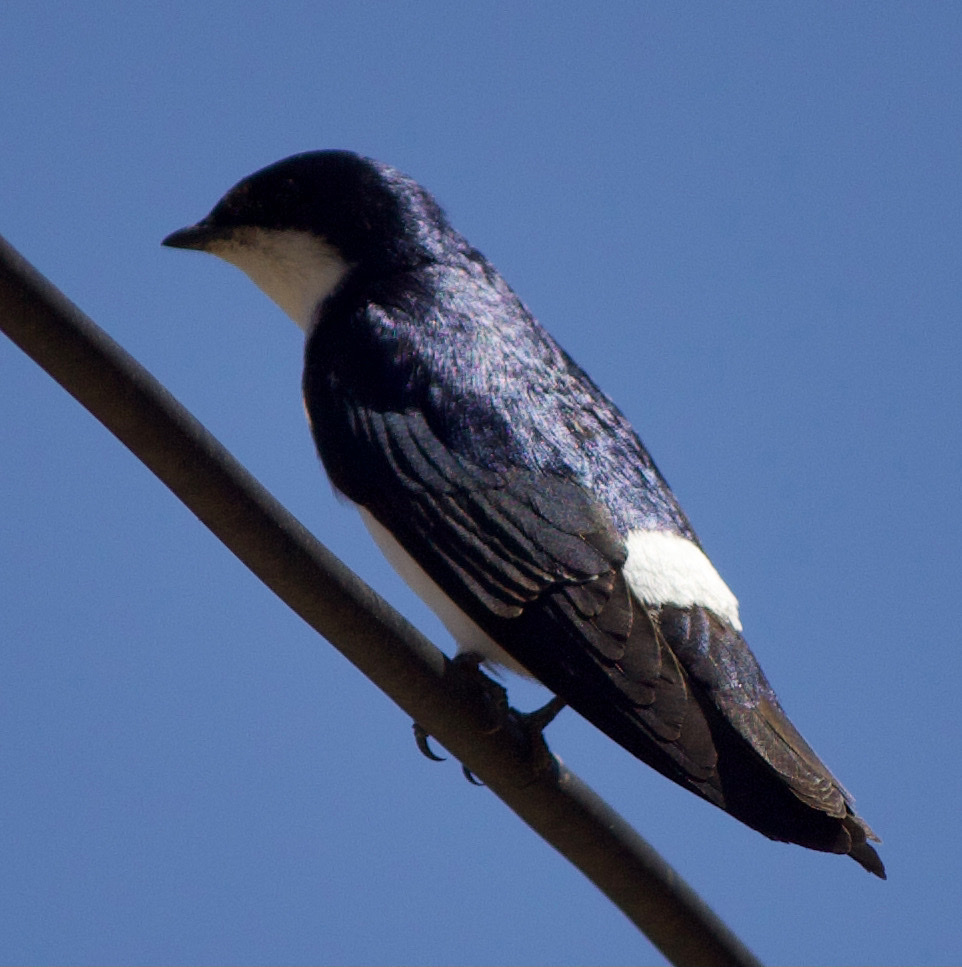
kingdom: Animalia
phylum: Chordata
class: Aves
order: Passeriformes
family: Hirundinidae
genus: Tachycineta
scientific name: Tachycineta leucopyga
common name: Chilean swallow
